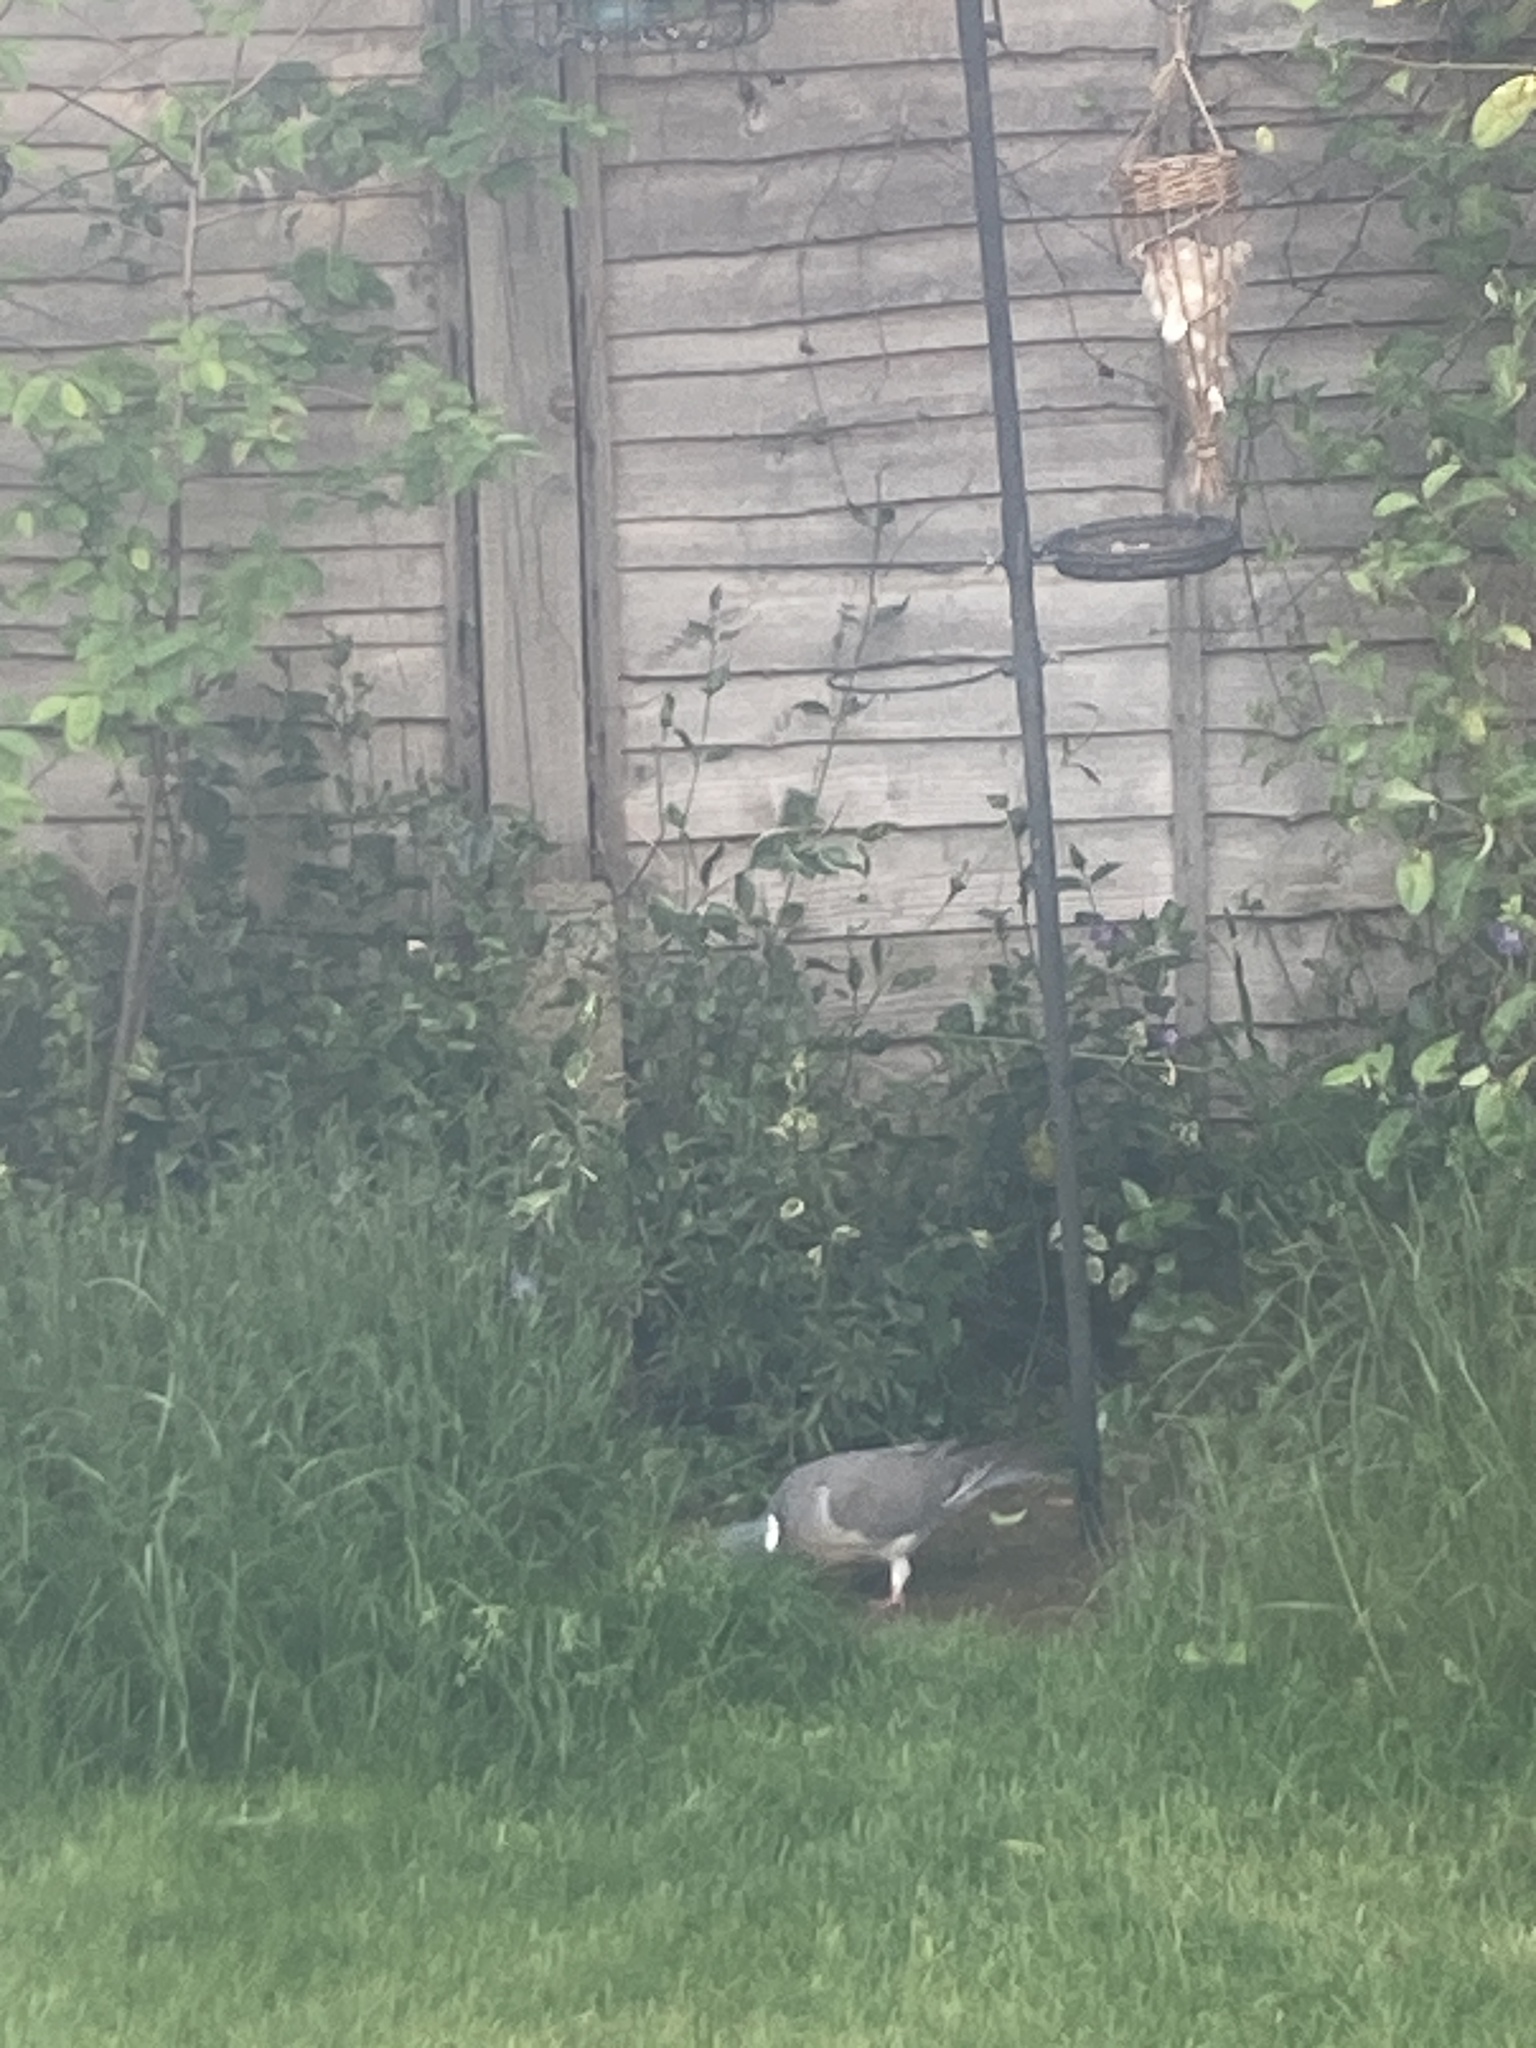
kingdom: Animalia
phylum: Chordata
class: Aves
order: Columbiformes
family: Columbidae
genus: Columba
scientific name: Columba palumbus
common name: Common wood pigeon
